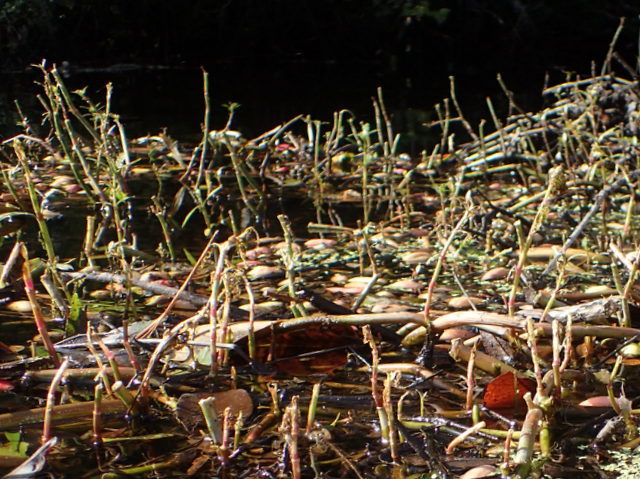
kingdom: Plantae
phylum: Tracheophyta
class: Magnoliopsida
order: Caryophyllales
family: Amaranthaceae
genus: Alternanthera
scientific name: Alternanthera philoxeroides
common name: Alligatorweed
